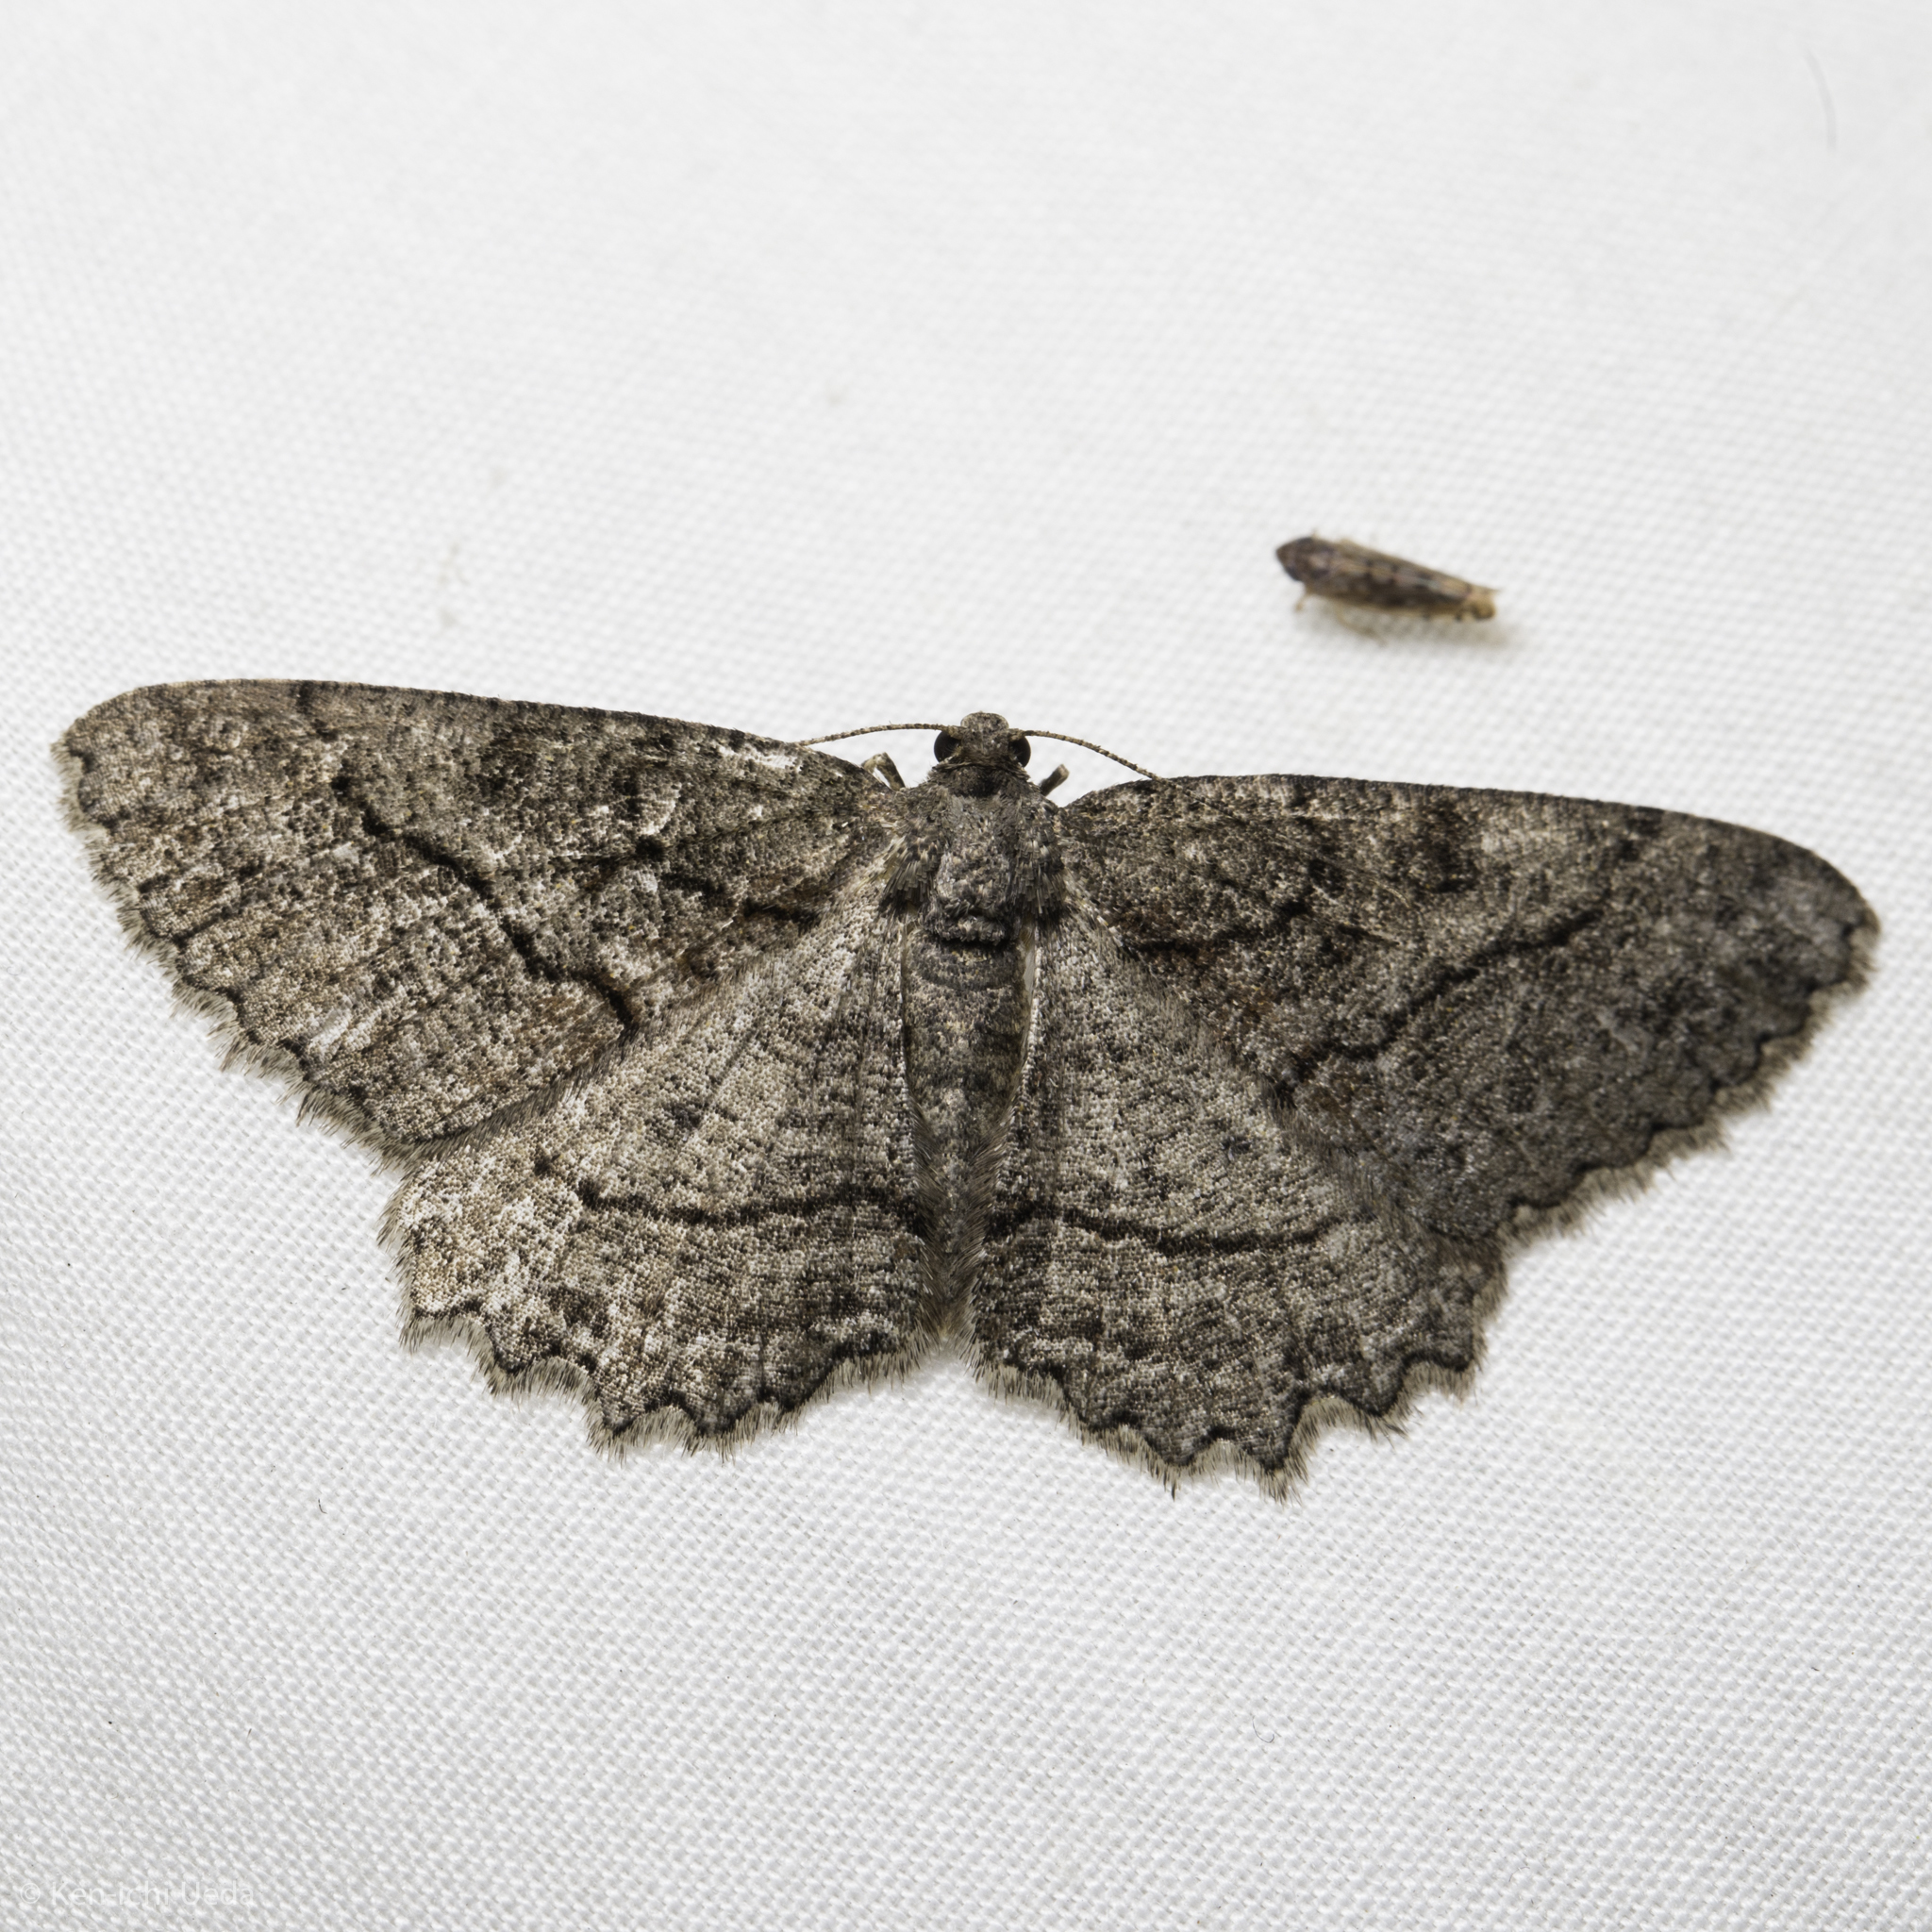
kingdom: Animalia
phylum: Arthropoda
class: Insecta
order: Lepidoptera
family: Geometridae
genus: Neoalcis
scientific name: Neoalcis californiaria
